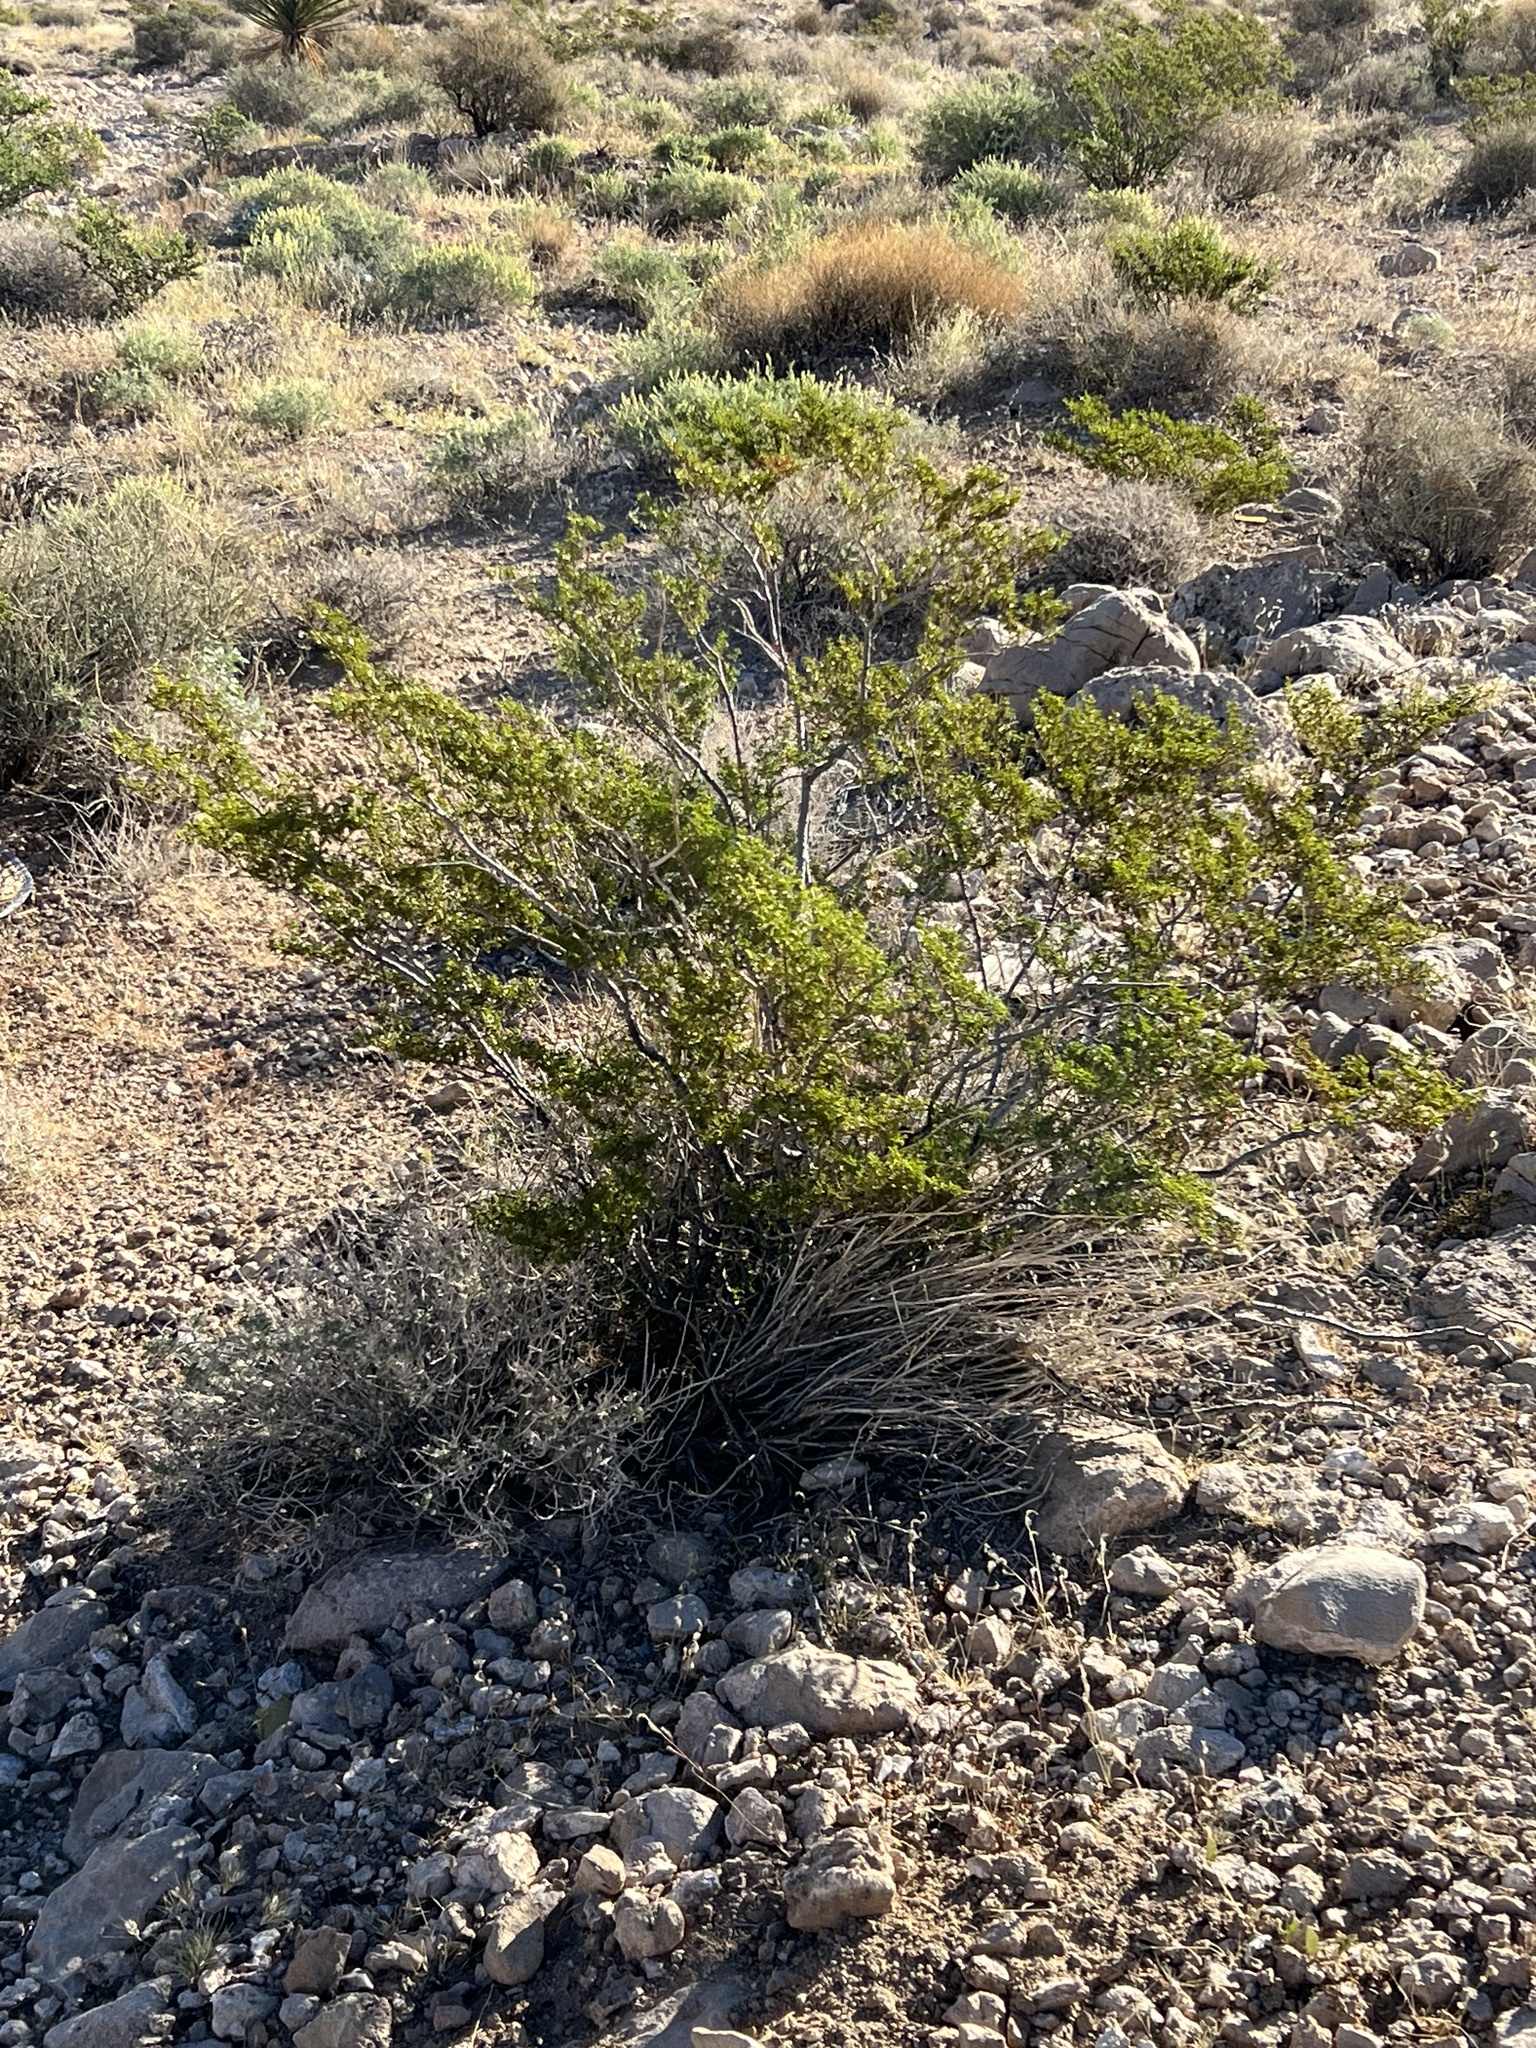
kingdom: Plantae
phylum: Tracheophyta
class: Magnoliopsida
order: Zygophyllales
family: Zygophyllaceae
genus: Larrea
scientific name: Larrea tridentata
